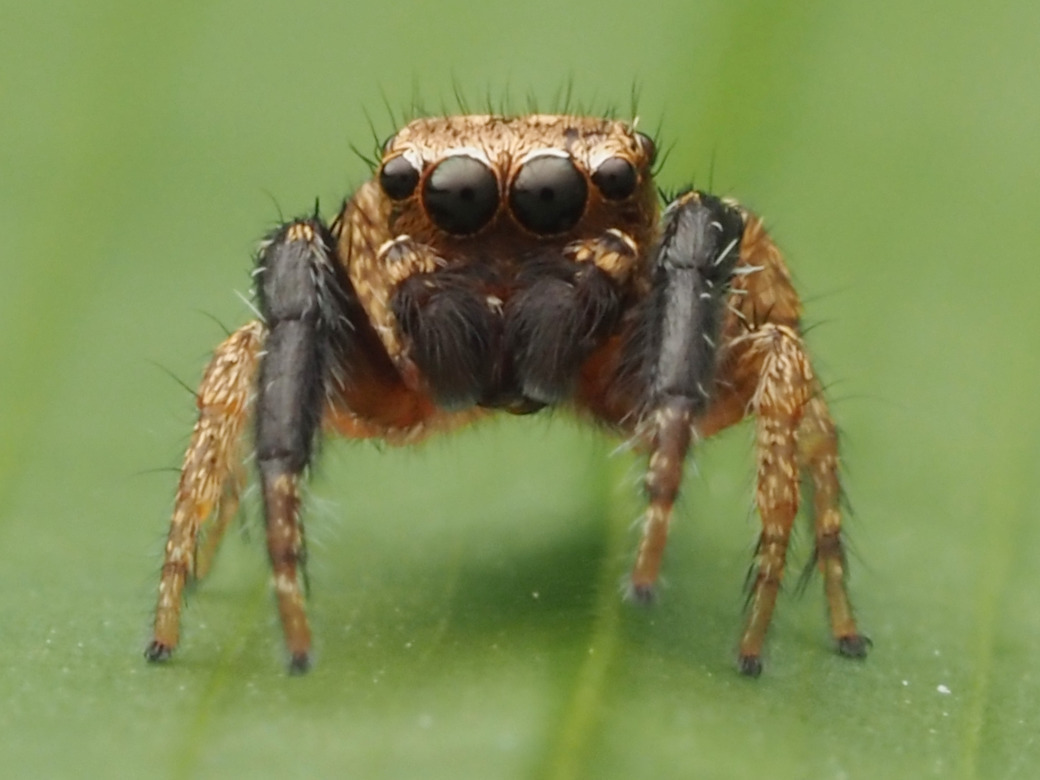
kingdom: Animalia
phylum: Arthropoda
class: Arachnida
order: Araneae
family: Salticidae
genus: Habronattus
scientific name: Habronattus paratus
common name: Jumping spiders
